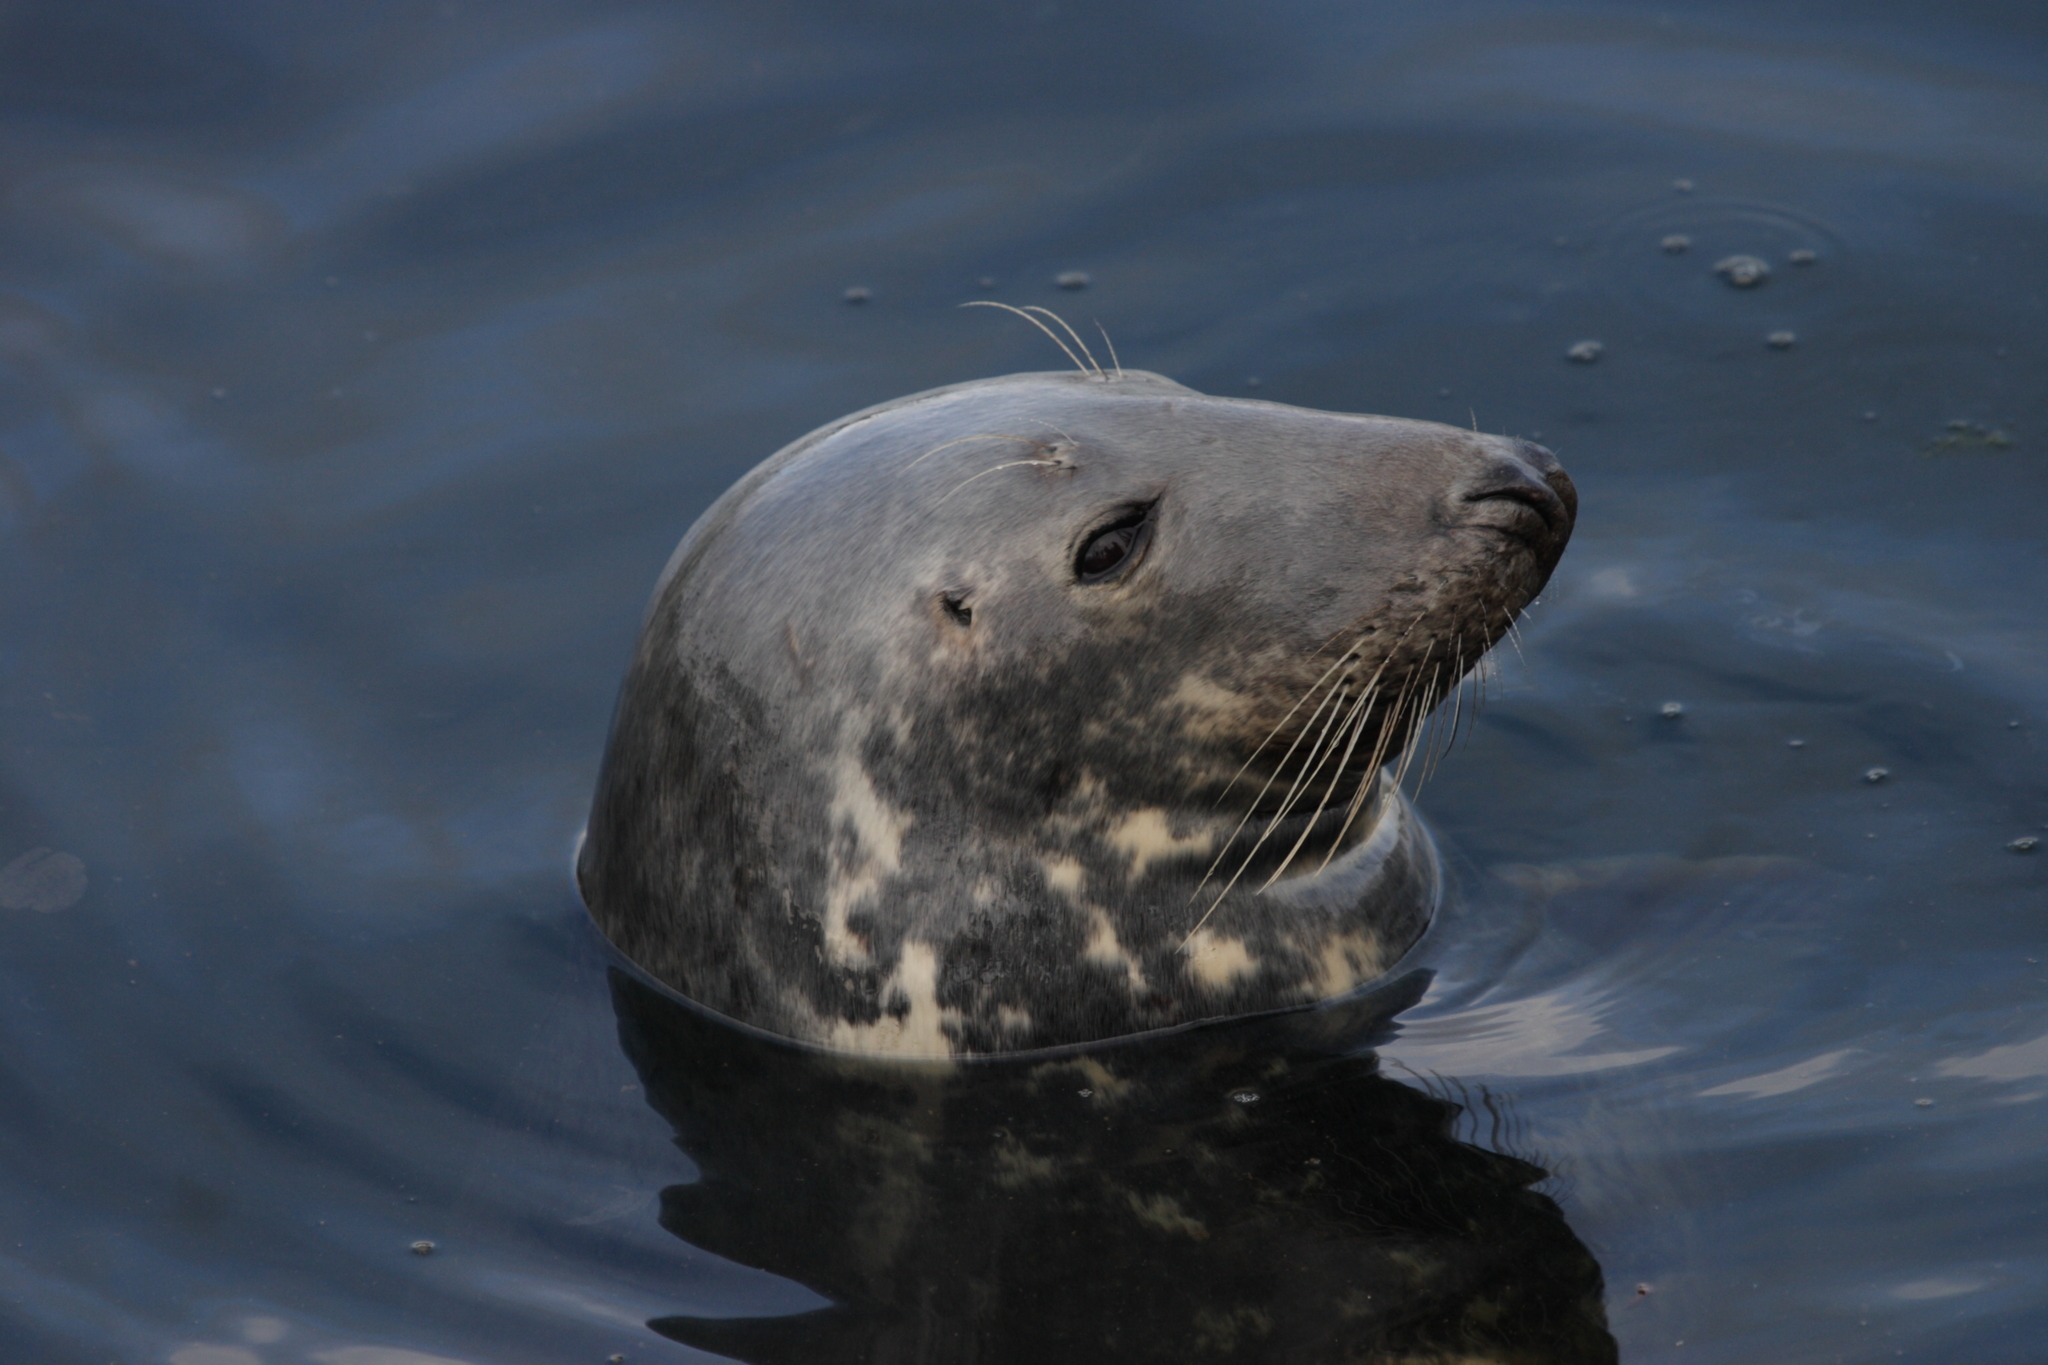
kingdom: Animalia
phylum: Chordata
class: Mammalia
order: Carnivora
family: Phocidae
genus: Halichoerus
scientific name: Halichoerus grypus
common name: Grey seal
